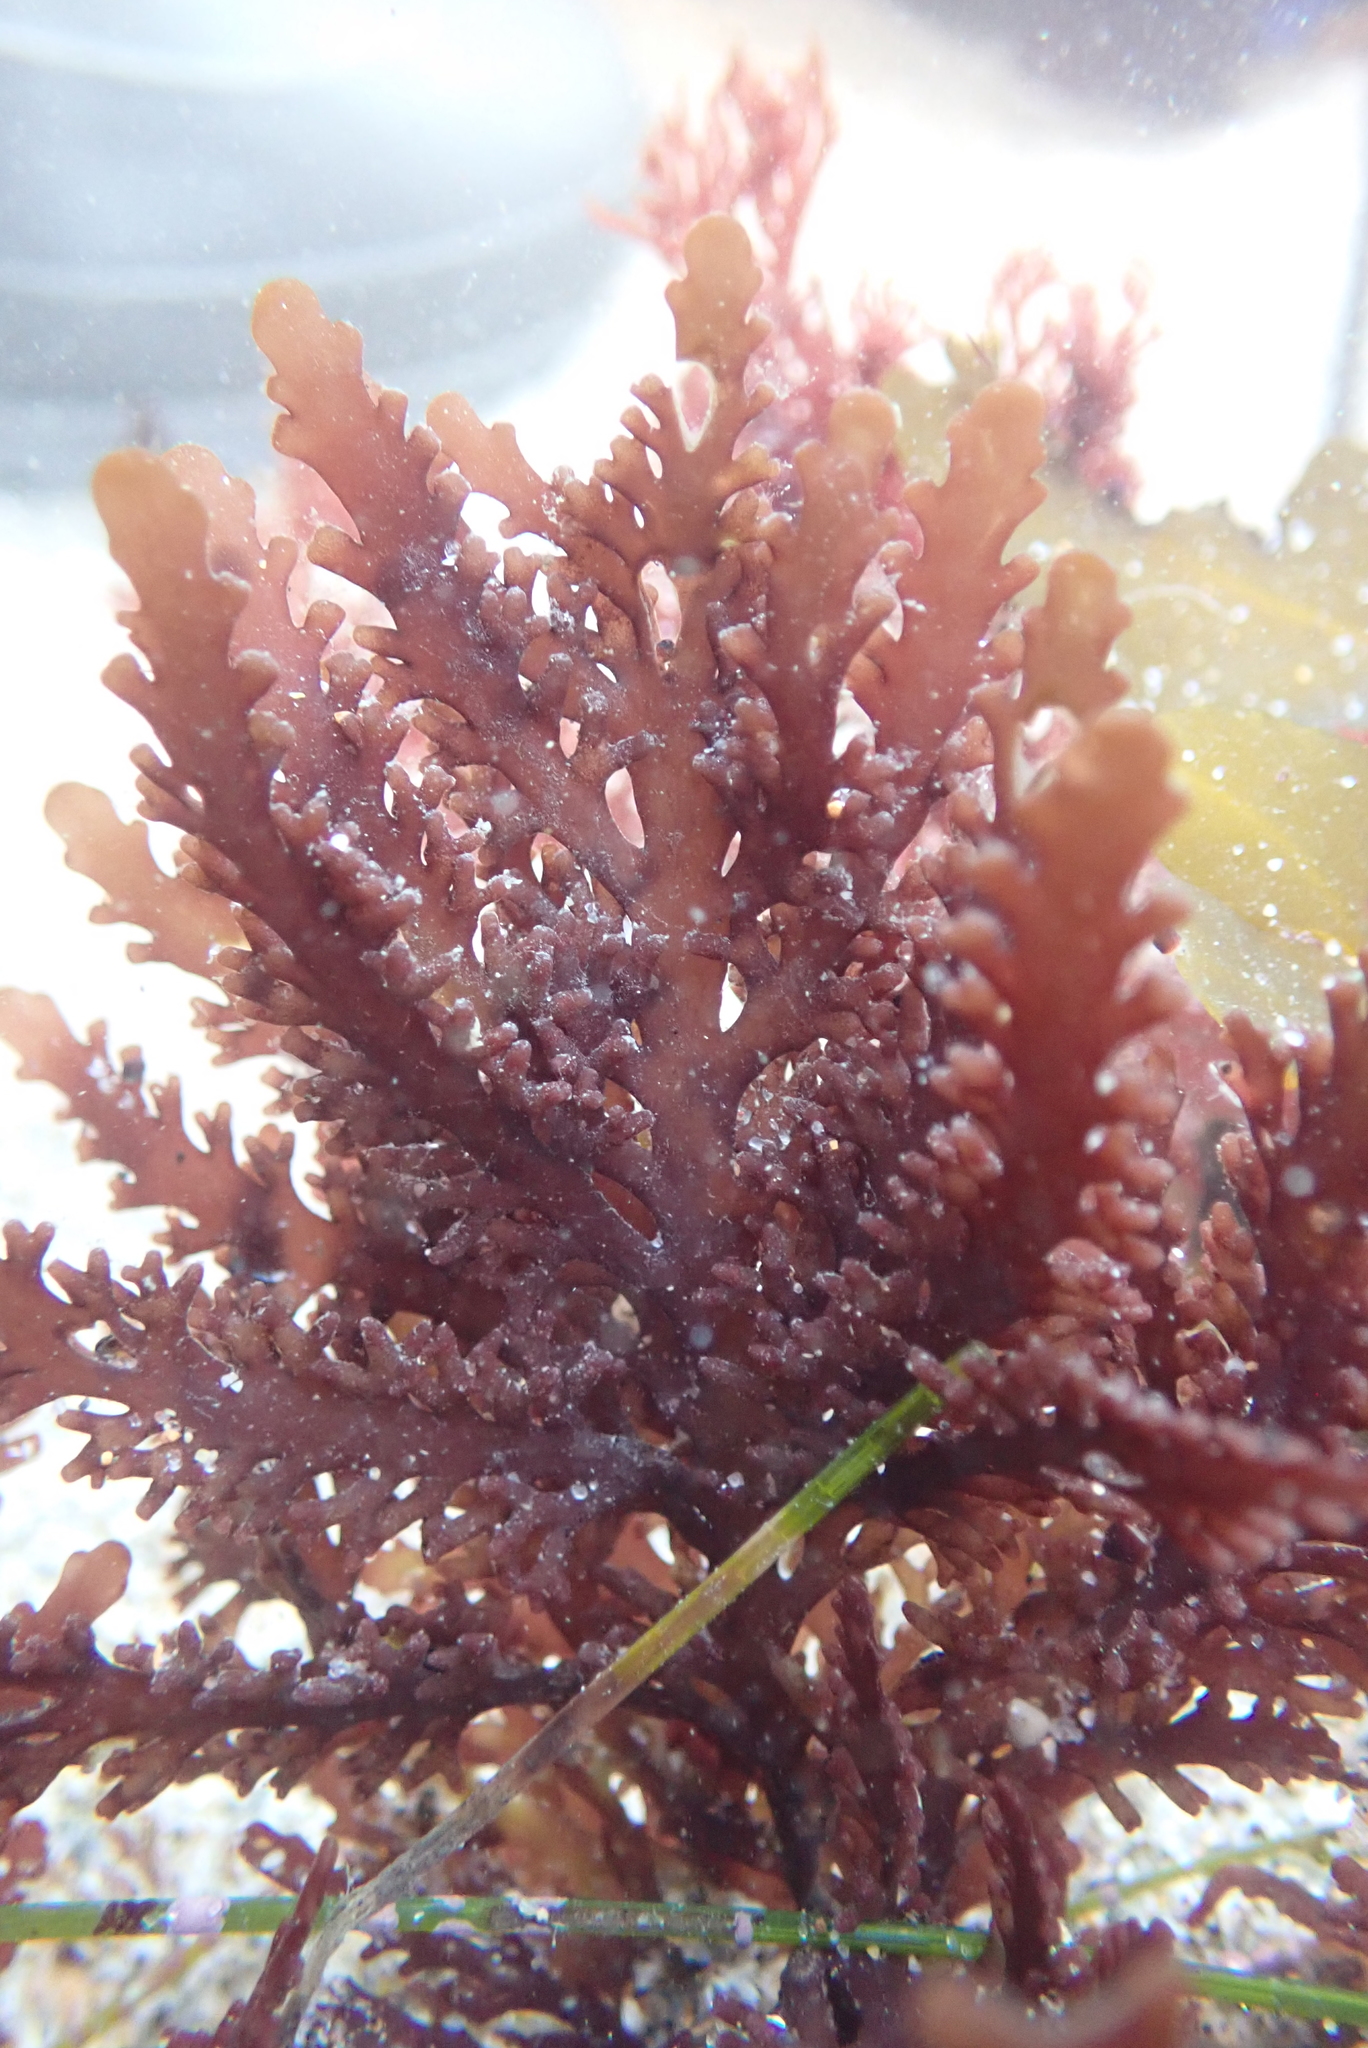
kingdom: Plantae
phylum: Rhodophyta
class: Florideophyceae
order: Ceramiales
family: Rhodomelaceae
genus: Osmundea
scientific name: Osmundea spectabilis
